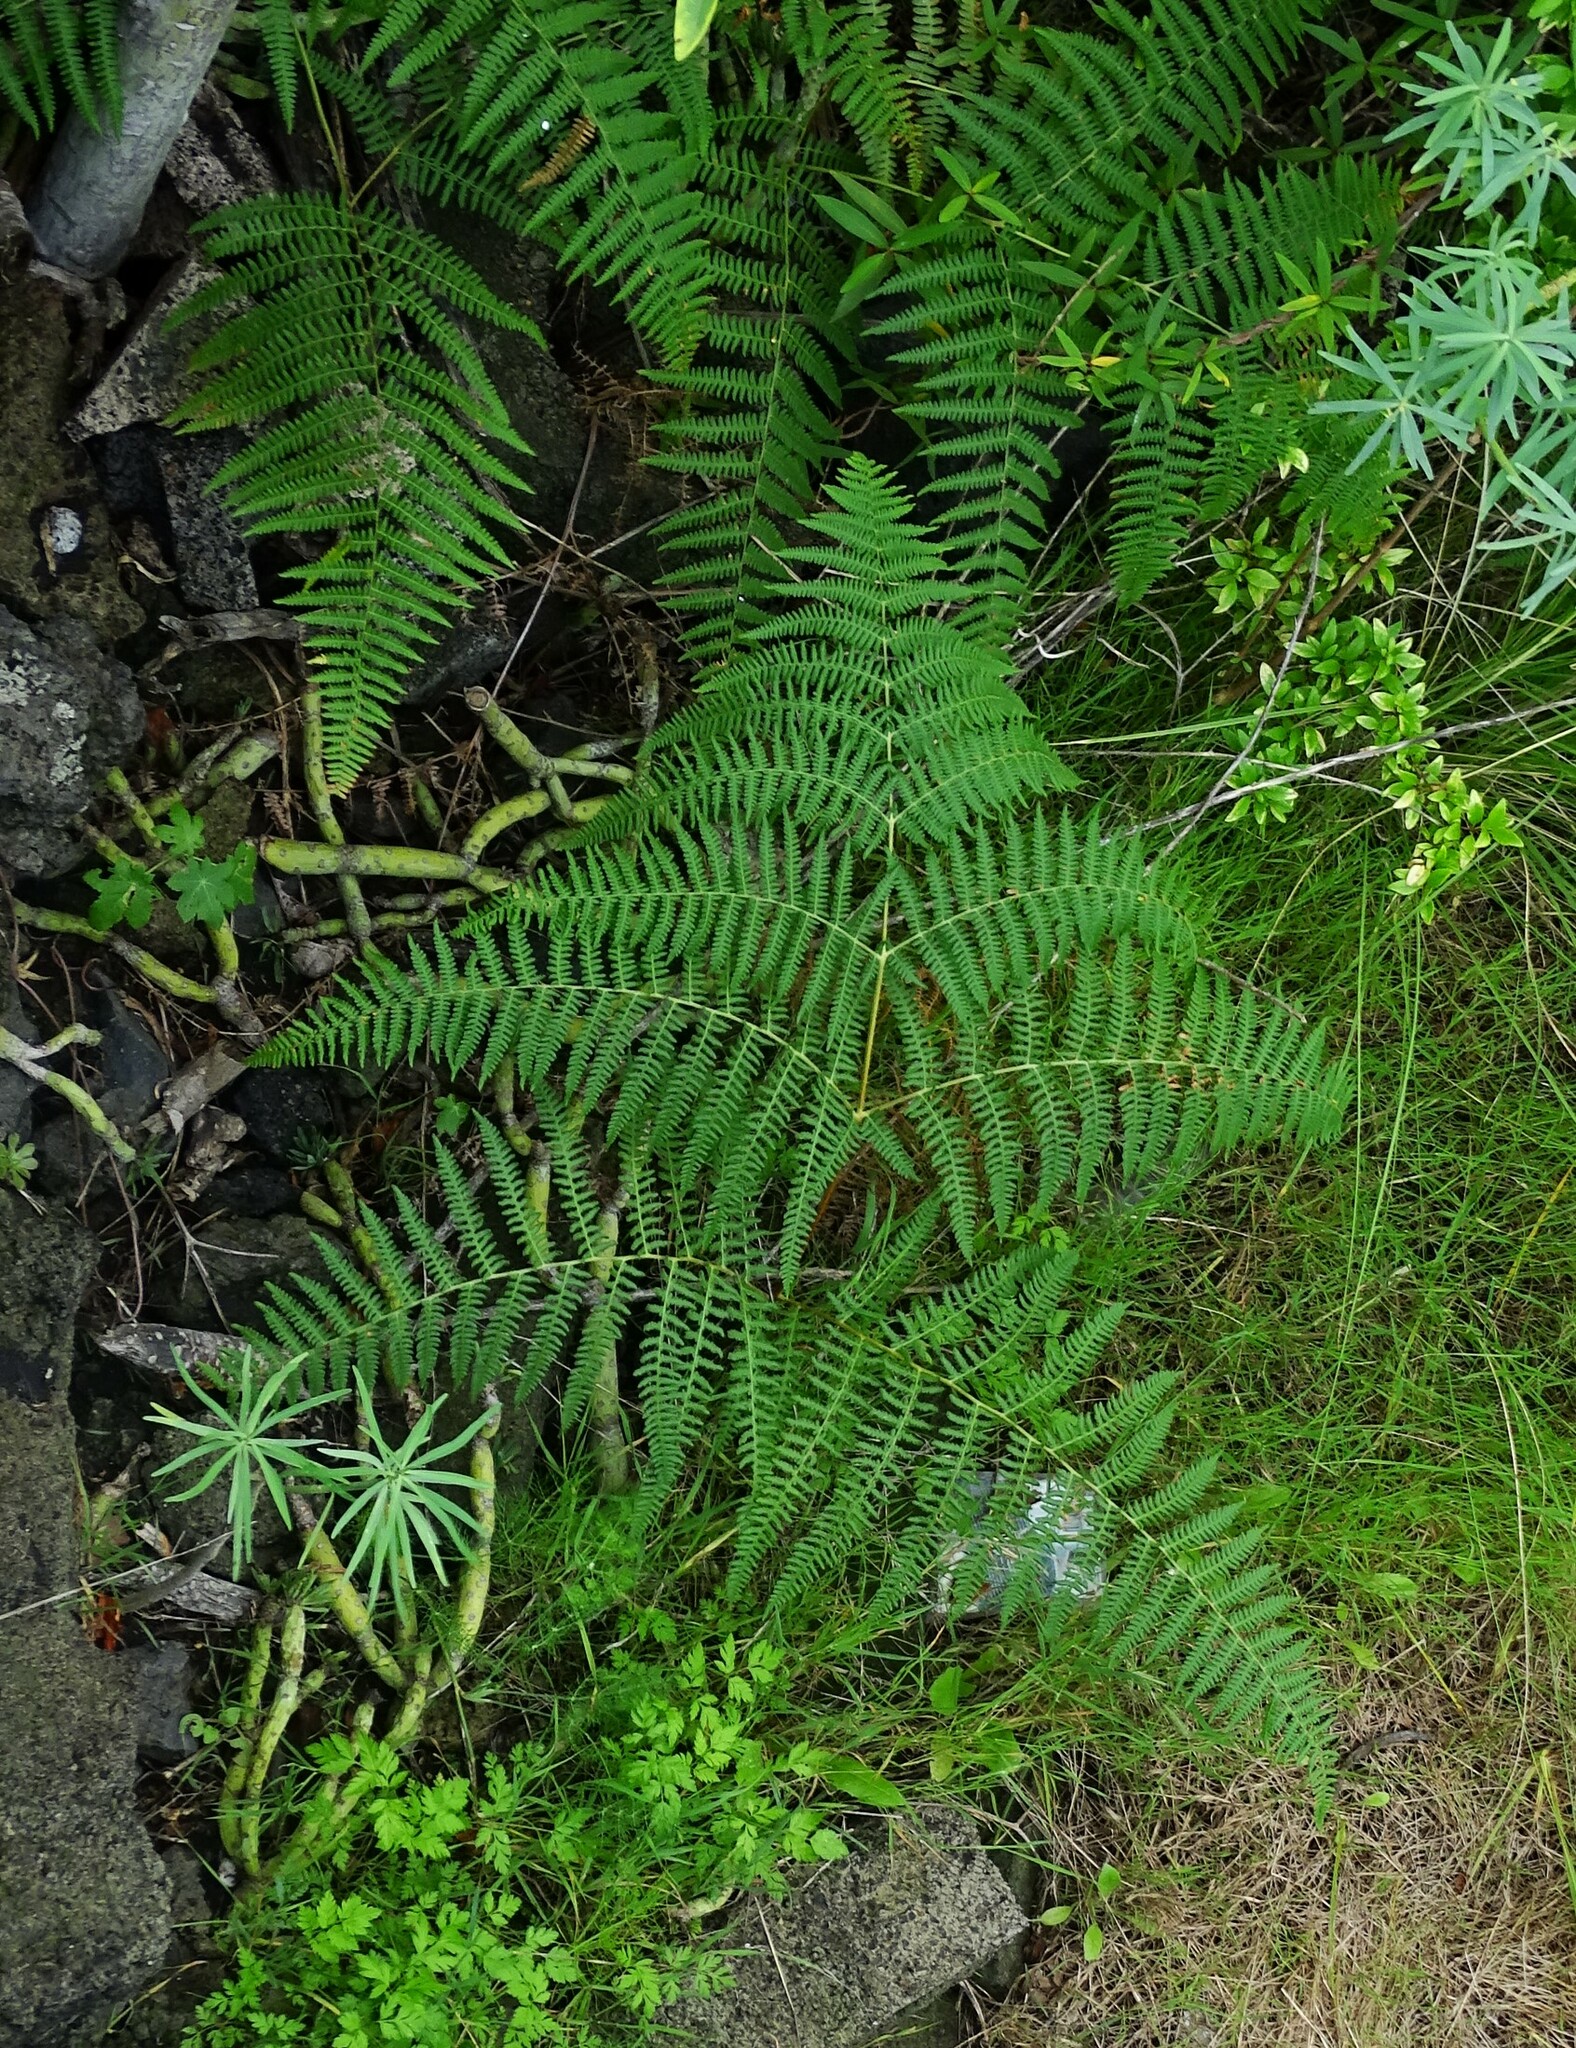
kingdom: Plantae
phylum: Tracheophyta
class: Polypodiopsida
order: Polypodiales
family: Dennstaedtiaceae
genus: Pteridium
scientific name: Pteridium aquilinum
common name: Bracken
